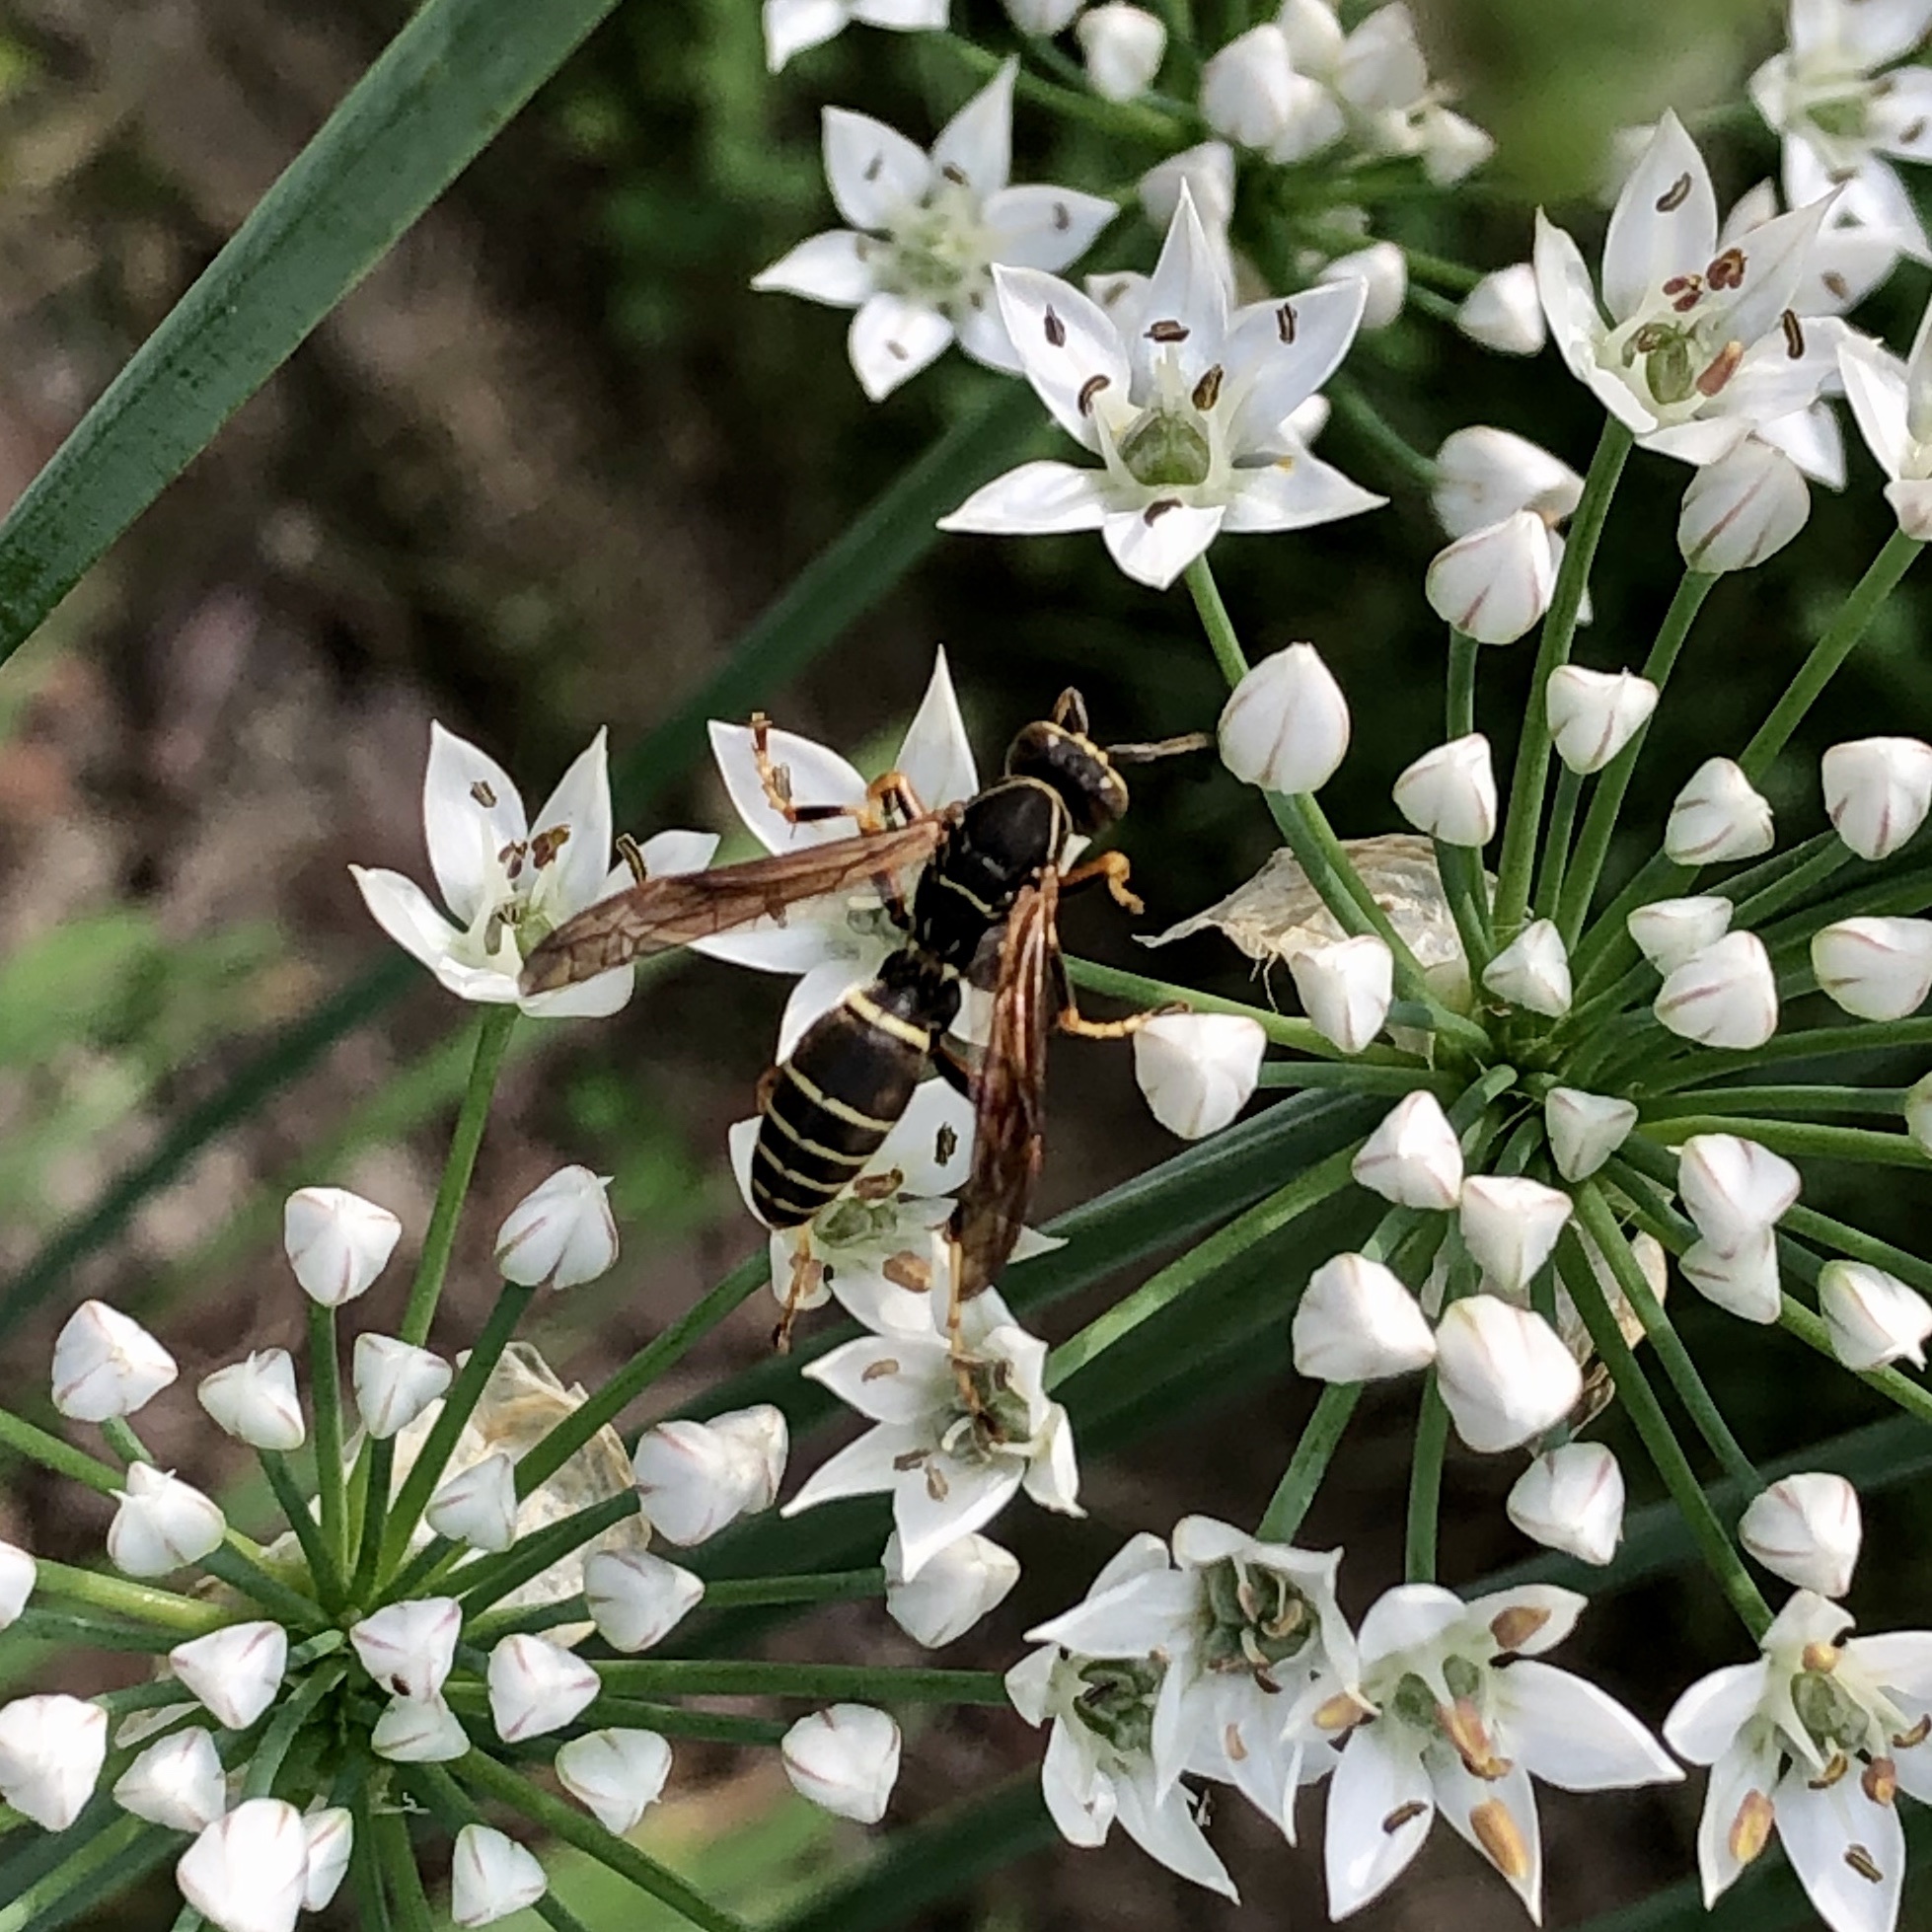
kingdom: Animalia
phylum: Arthropoda
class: Insecta
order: Hymenoptera
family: Eumenidae
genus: Polistes
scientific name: Polistes fuscatus
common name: Dark paper wasp
